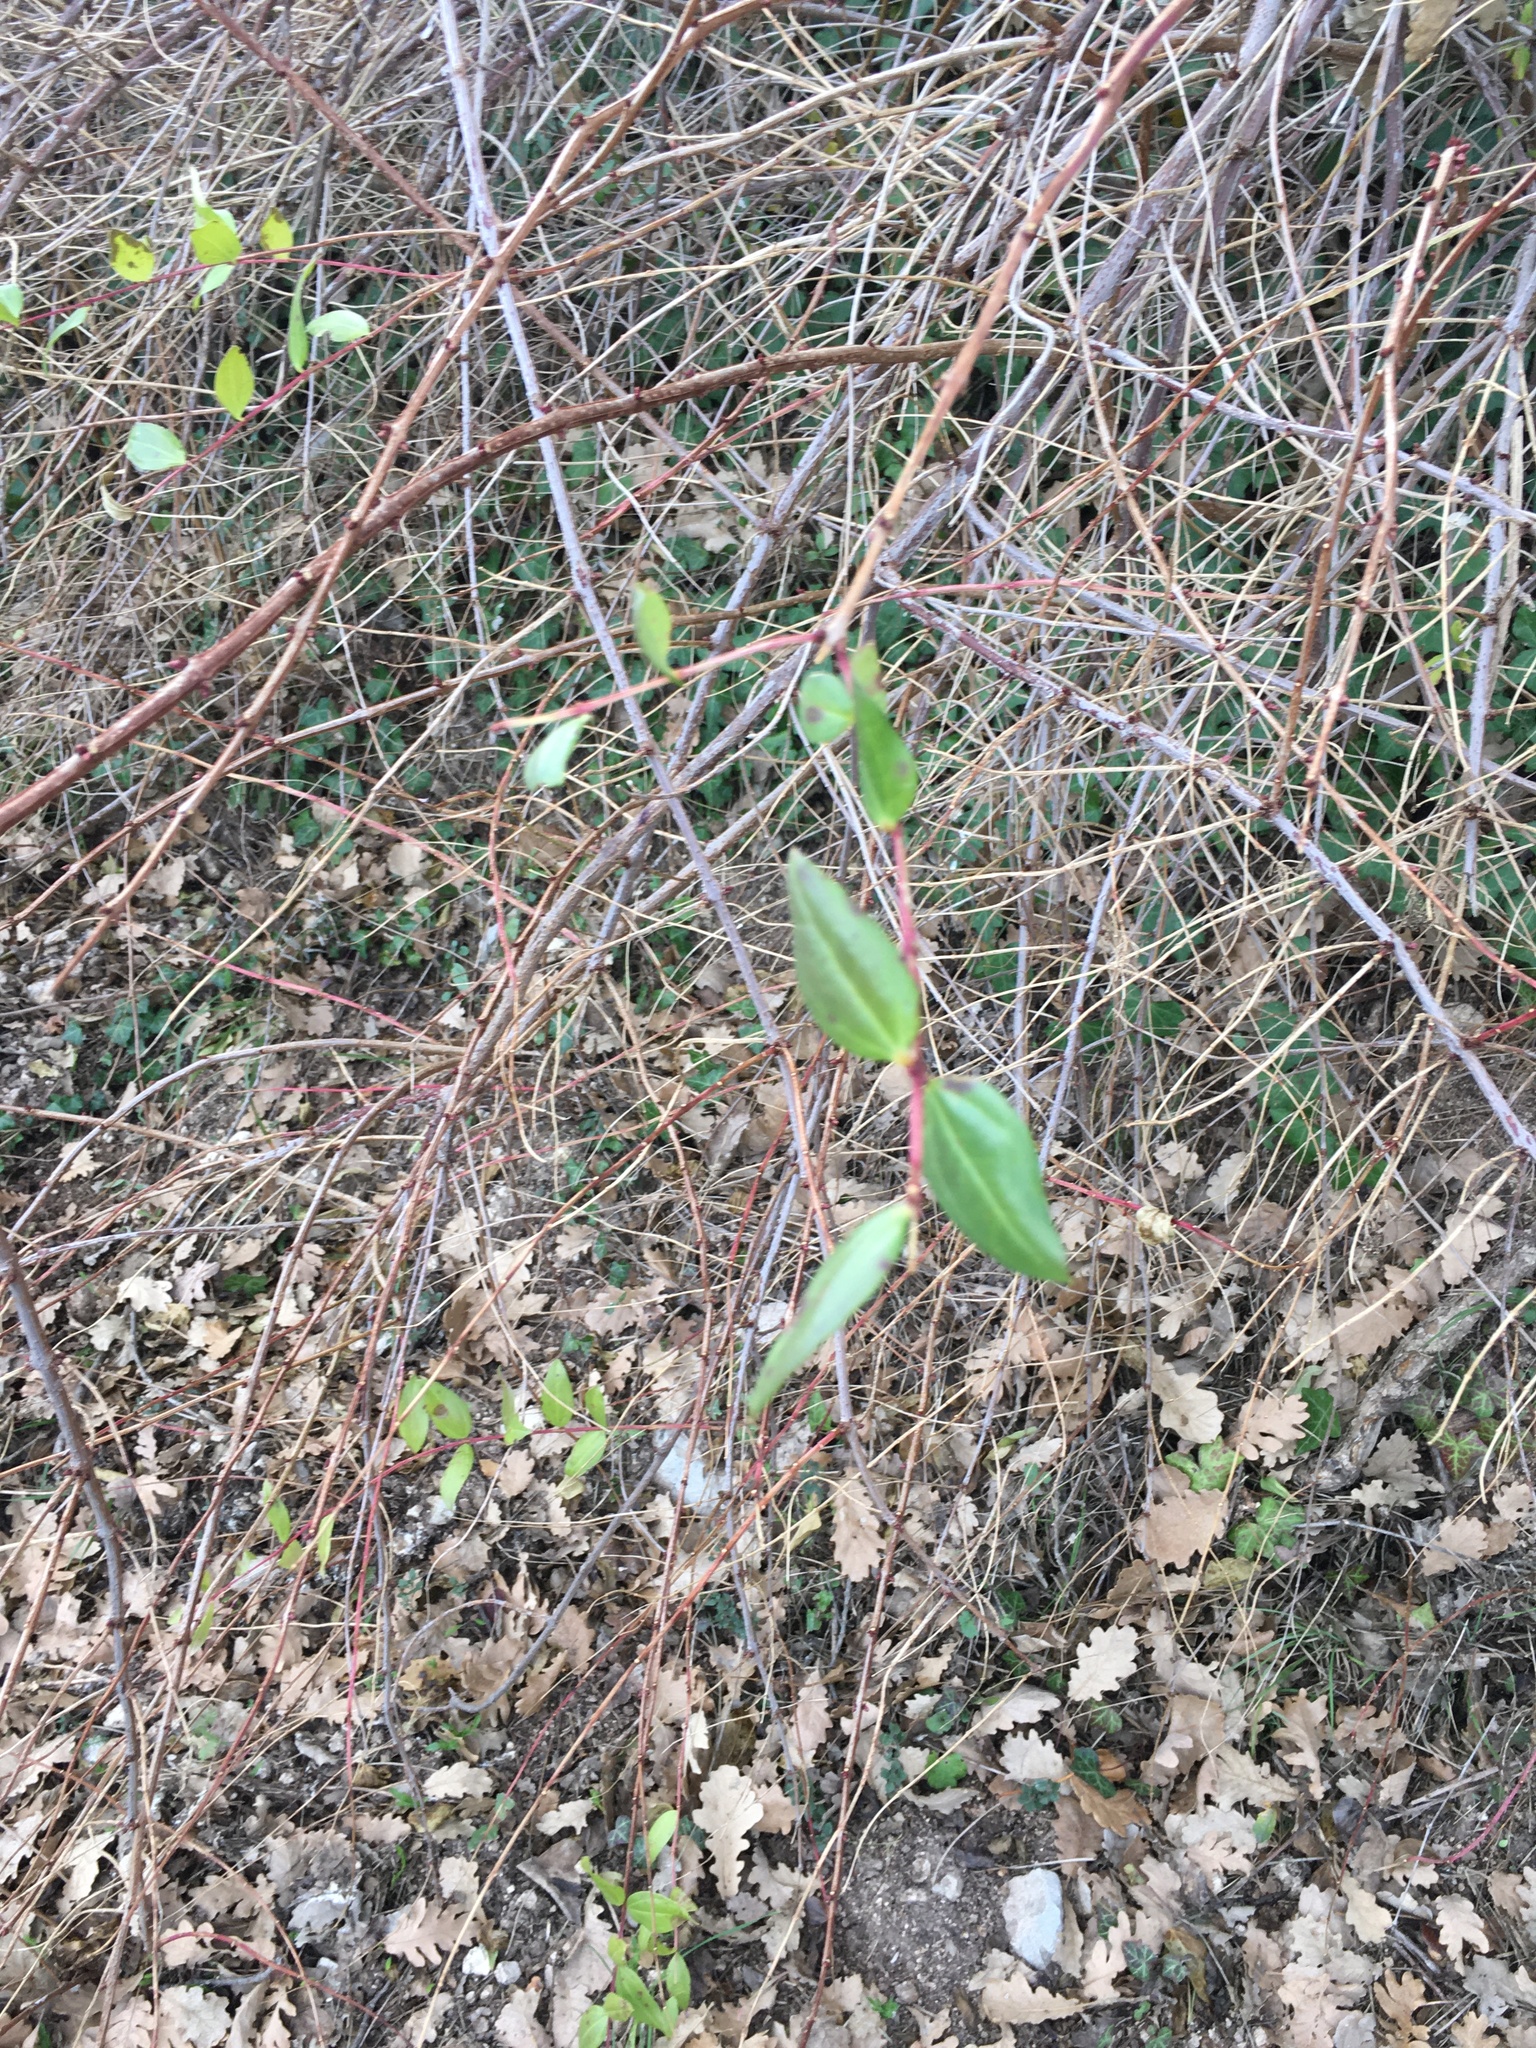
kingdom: Plantae
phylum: Tracheophyta
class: Magnoliopsida
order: Dipsacales
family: Caprifoliaceae
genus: Lonicera
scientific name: Lonicera japonica
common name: Japanese honeysuckle
